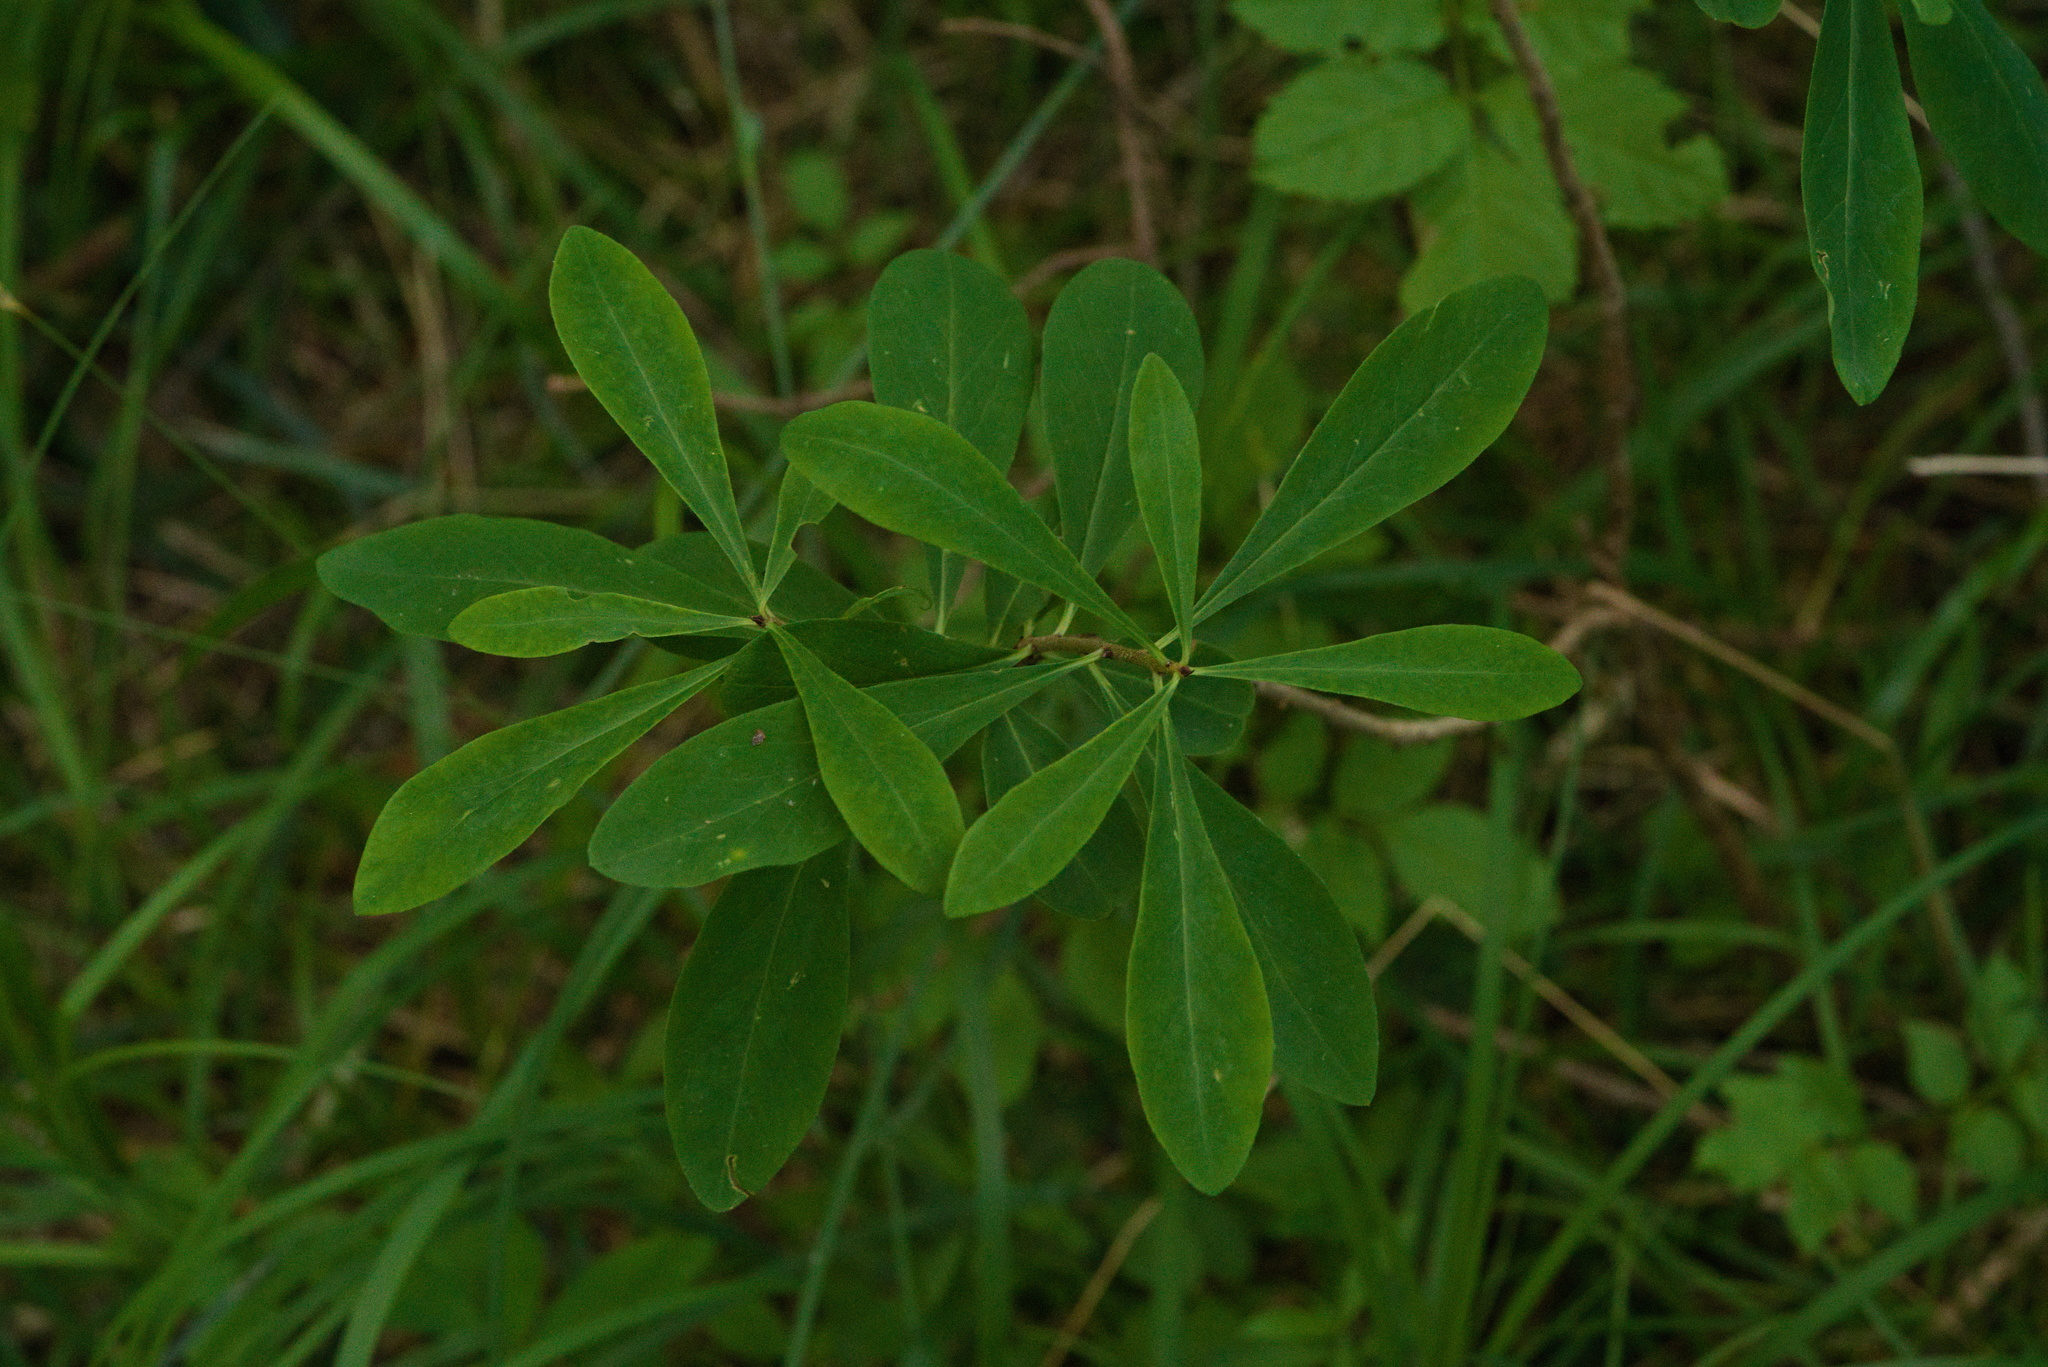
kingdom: Plantae
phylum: Tracheophyta
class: Magnoliopsida
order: Malvales
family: Thymelaeaceae
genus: Daphne
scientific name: Daphne mezereum
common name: Mezereon
